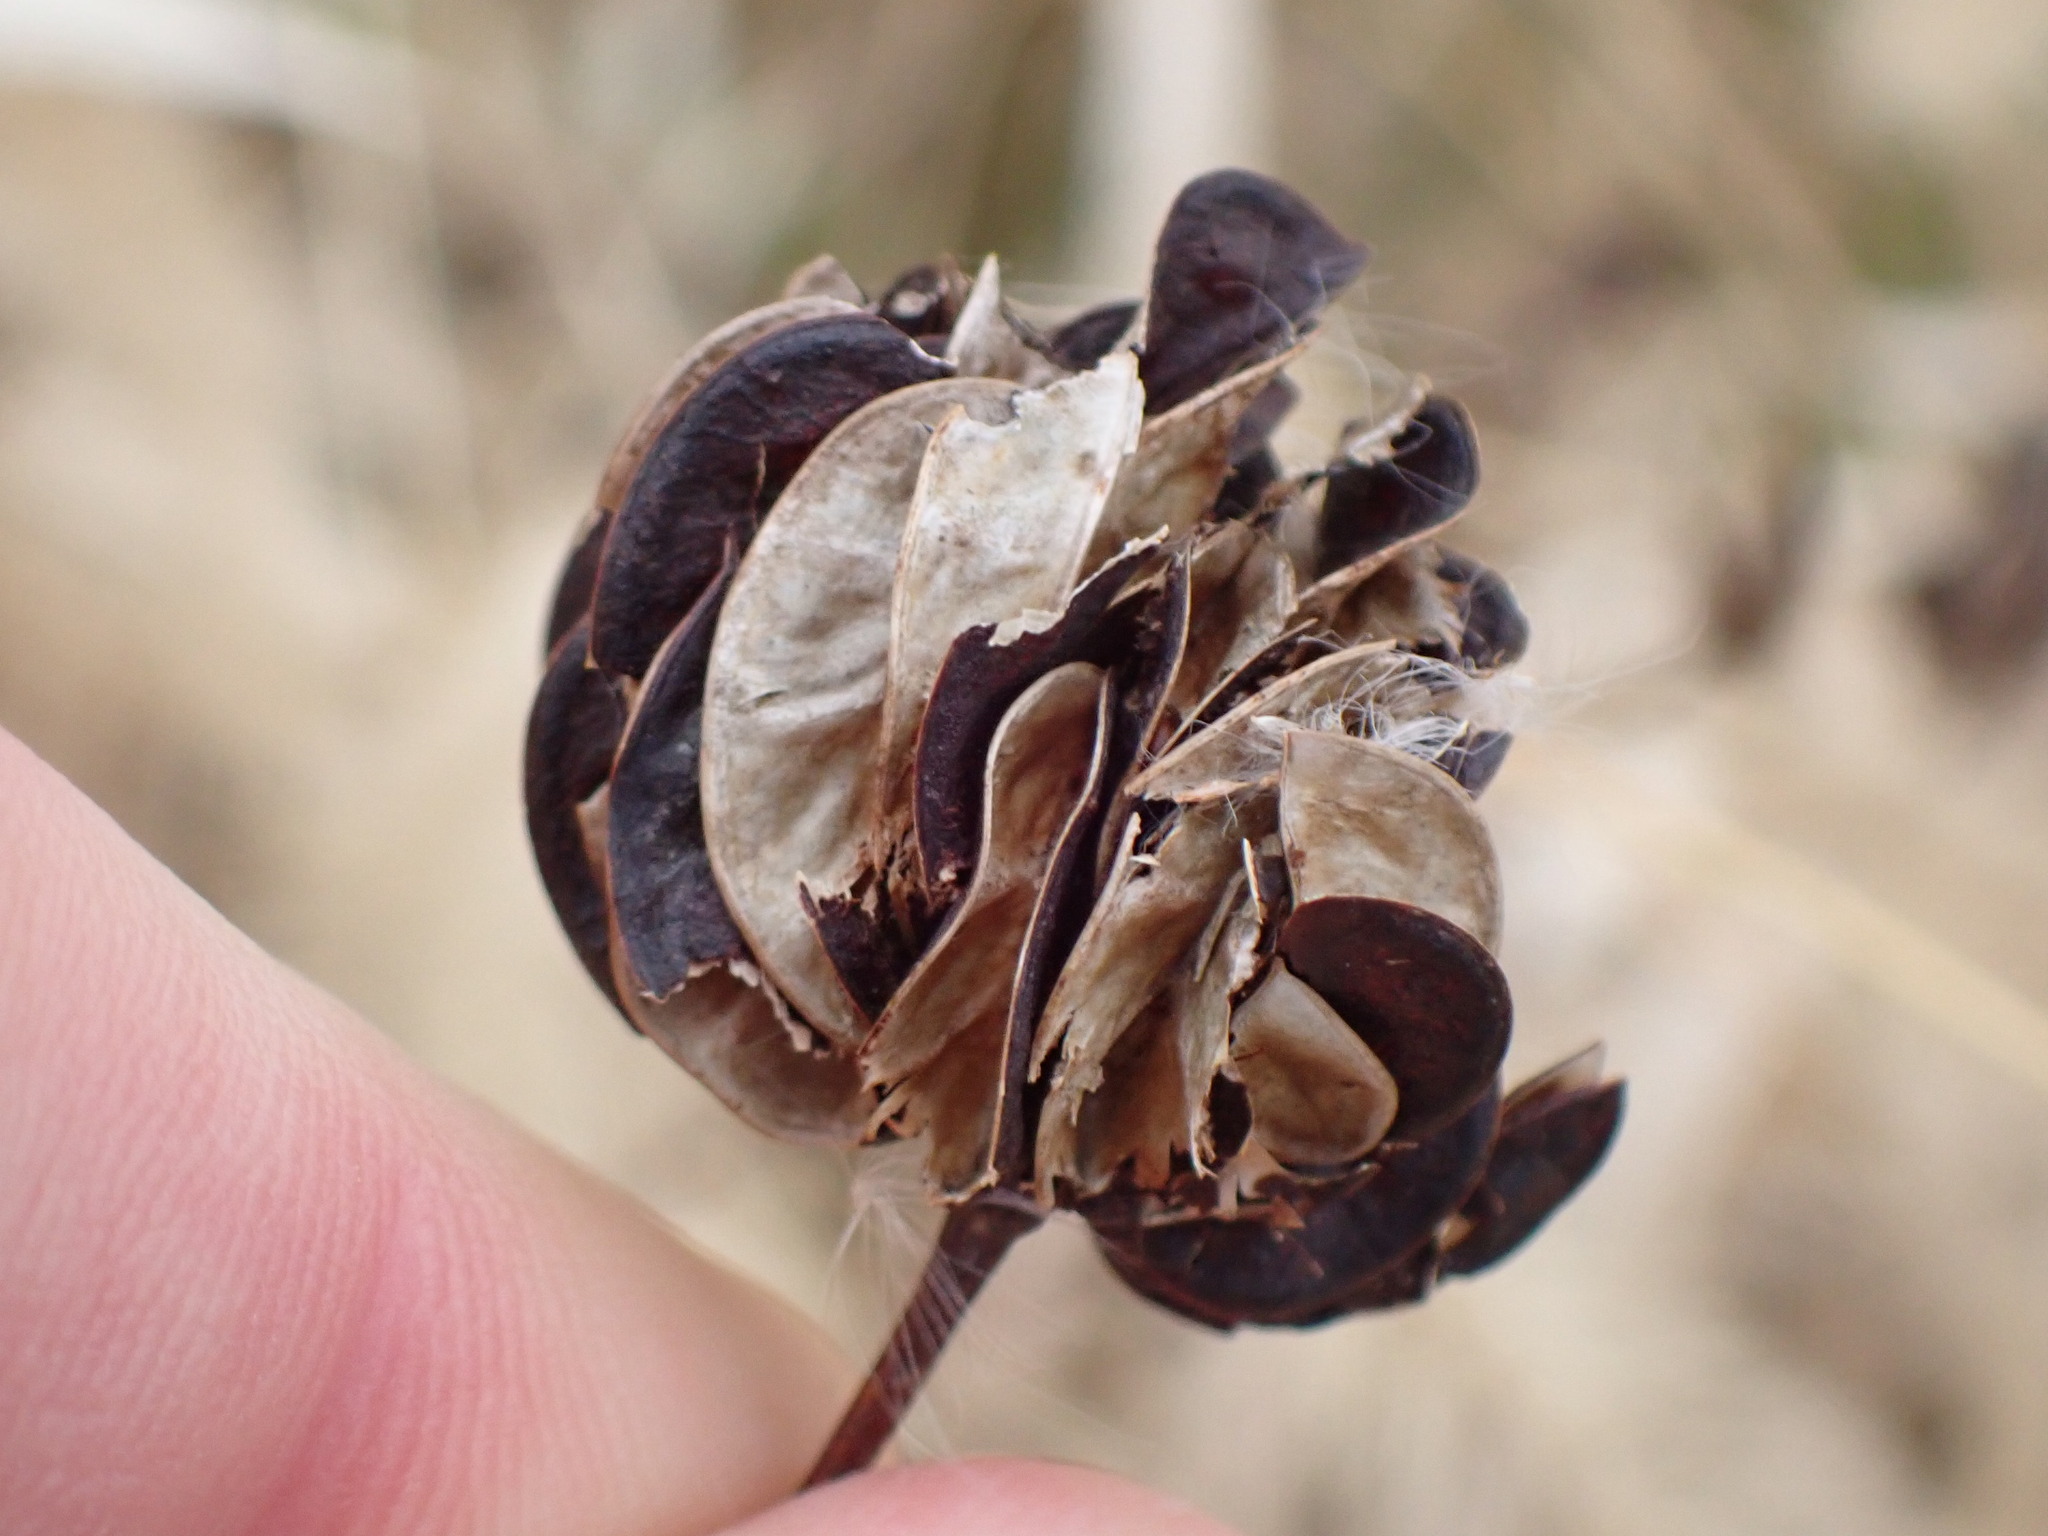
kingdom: Plantae
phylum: Tracheophyta
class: Magnoliopsida
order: Fabales
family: Fabaceae
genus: Desmanthus
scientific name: Desmanthus illinoensis
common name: Illinois bundle-flower
